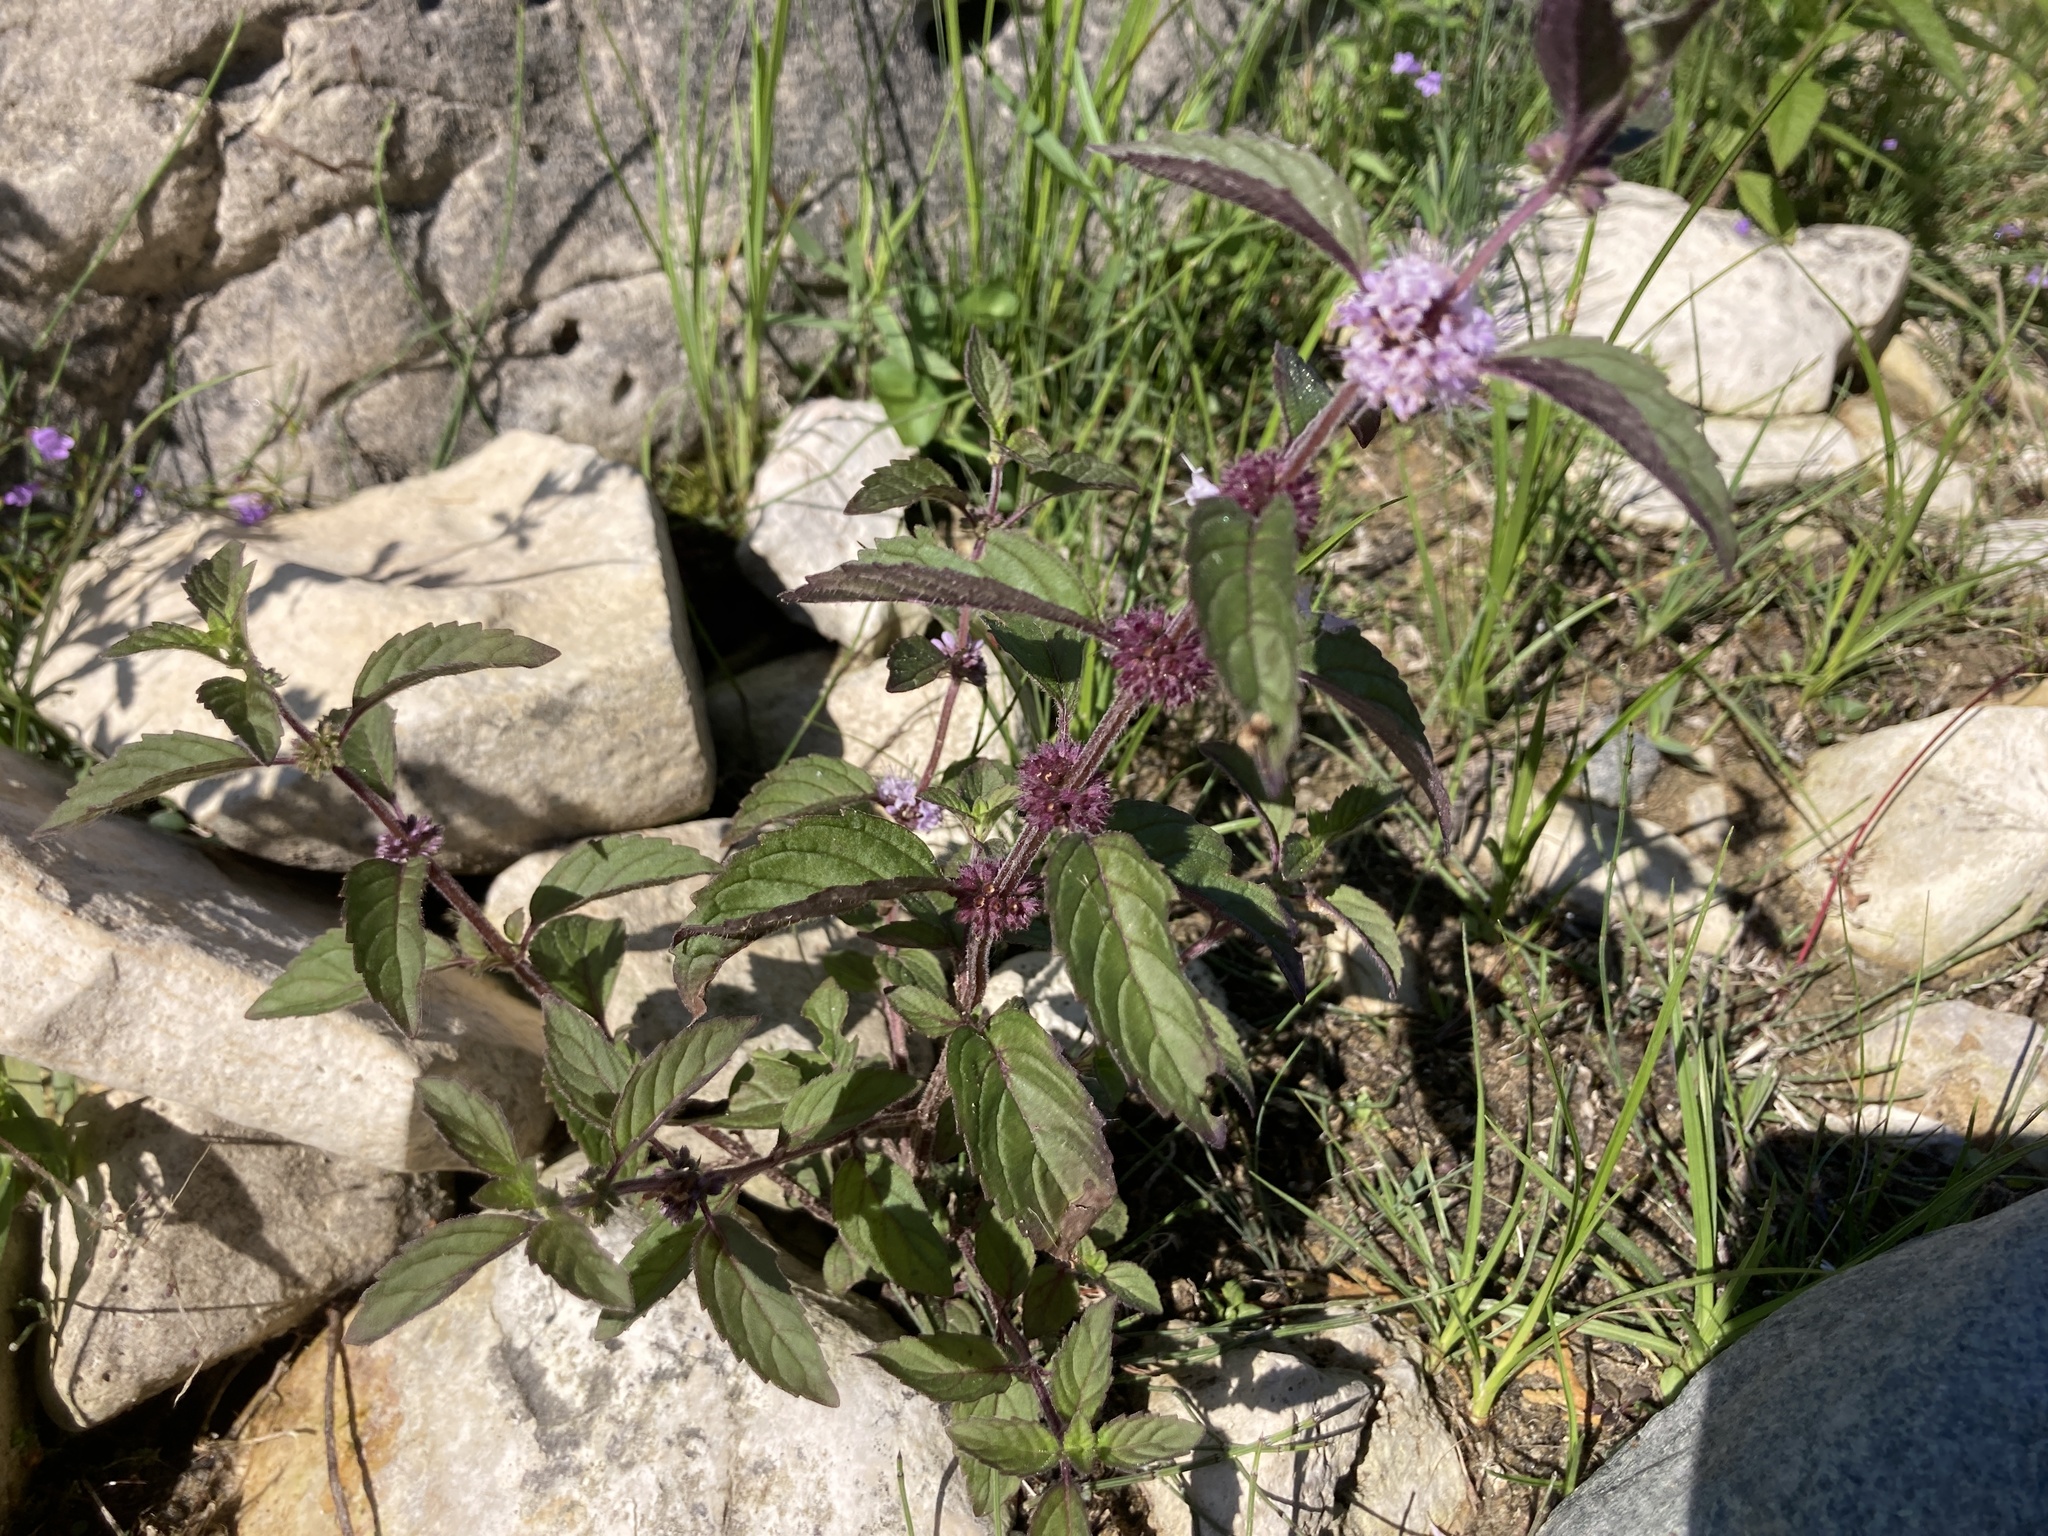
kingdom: Plantae
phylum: Tracheophyta
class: Magnoliopsida
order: Lamiales
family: Lamiaceae
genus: Mentha
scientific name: Mentha canadensis
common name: American corn mint
